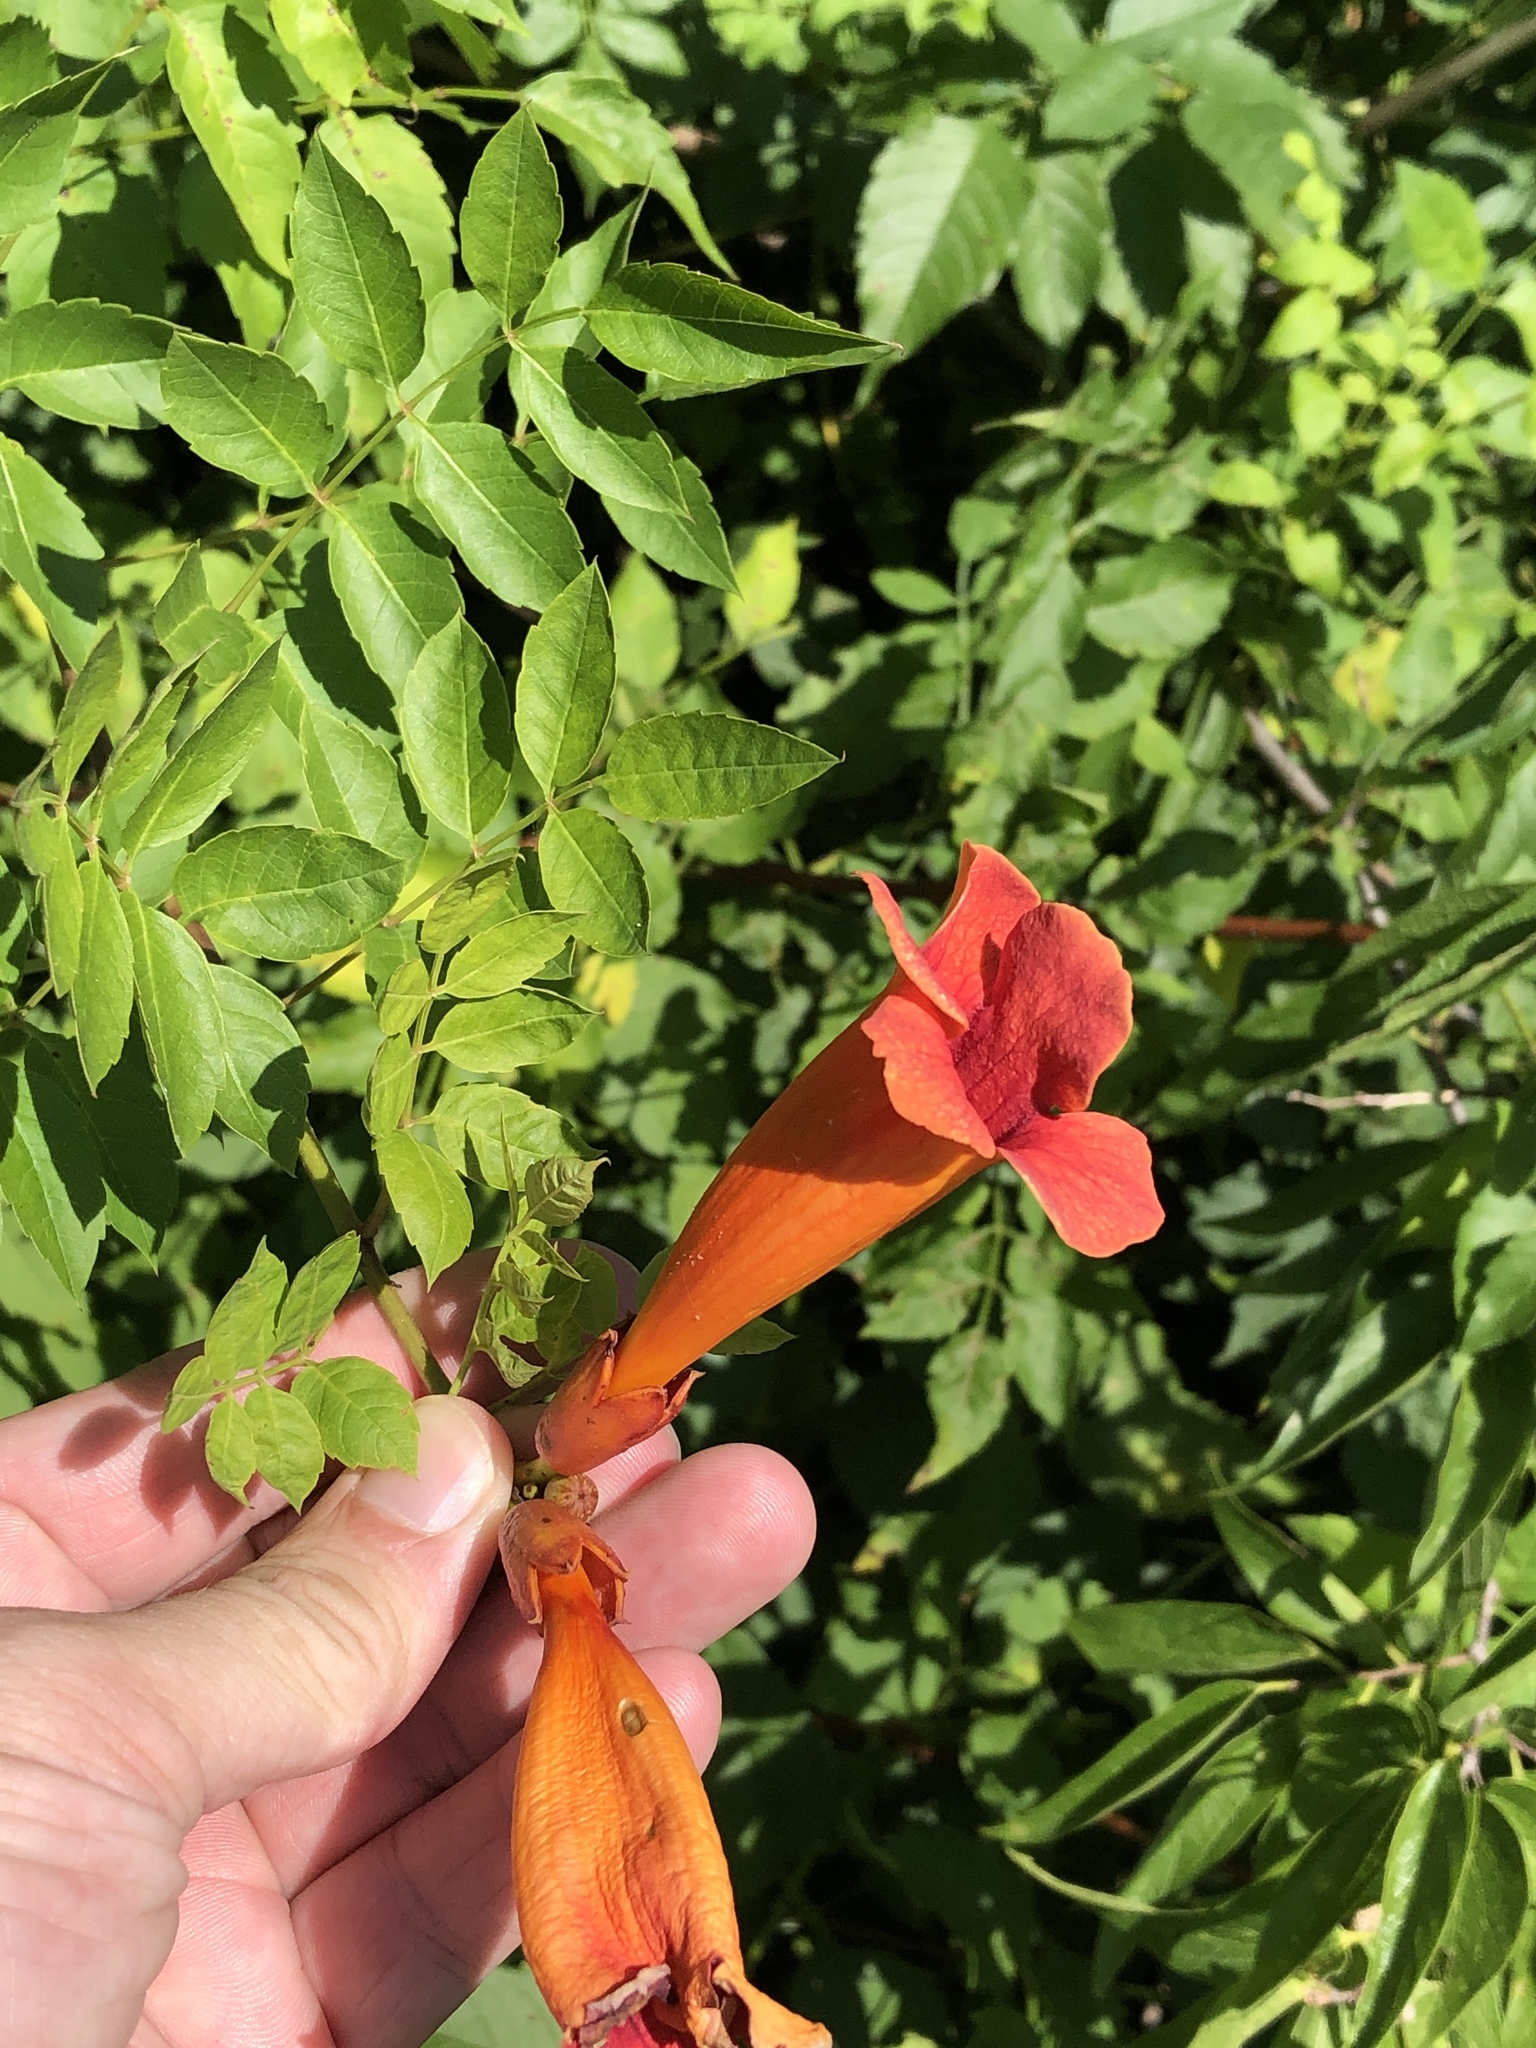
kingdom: Plantae
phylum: Tracheophyta
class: Magnoliopsida
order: Lamiales
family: Bignoniaceae
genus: Campsis
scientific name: Campsis radicans
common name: Trumpet-creeper
